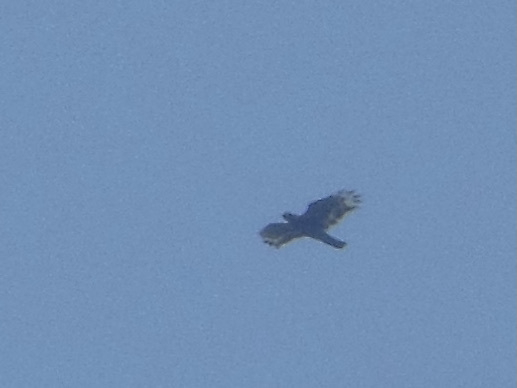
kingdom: Animalia
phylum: Chordata
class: Aves
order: Accipitriformes
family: Accipitridae
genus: Spilornis
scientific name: Spilornis cheela
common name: Crested serpent eagle
